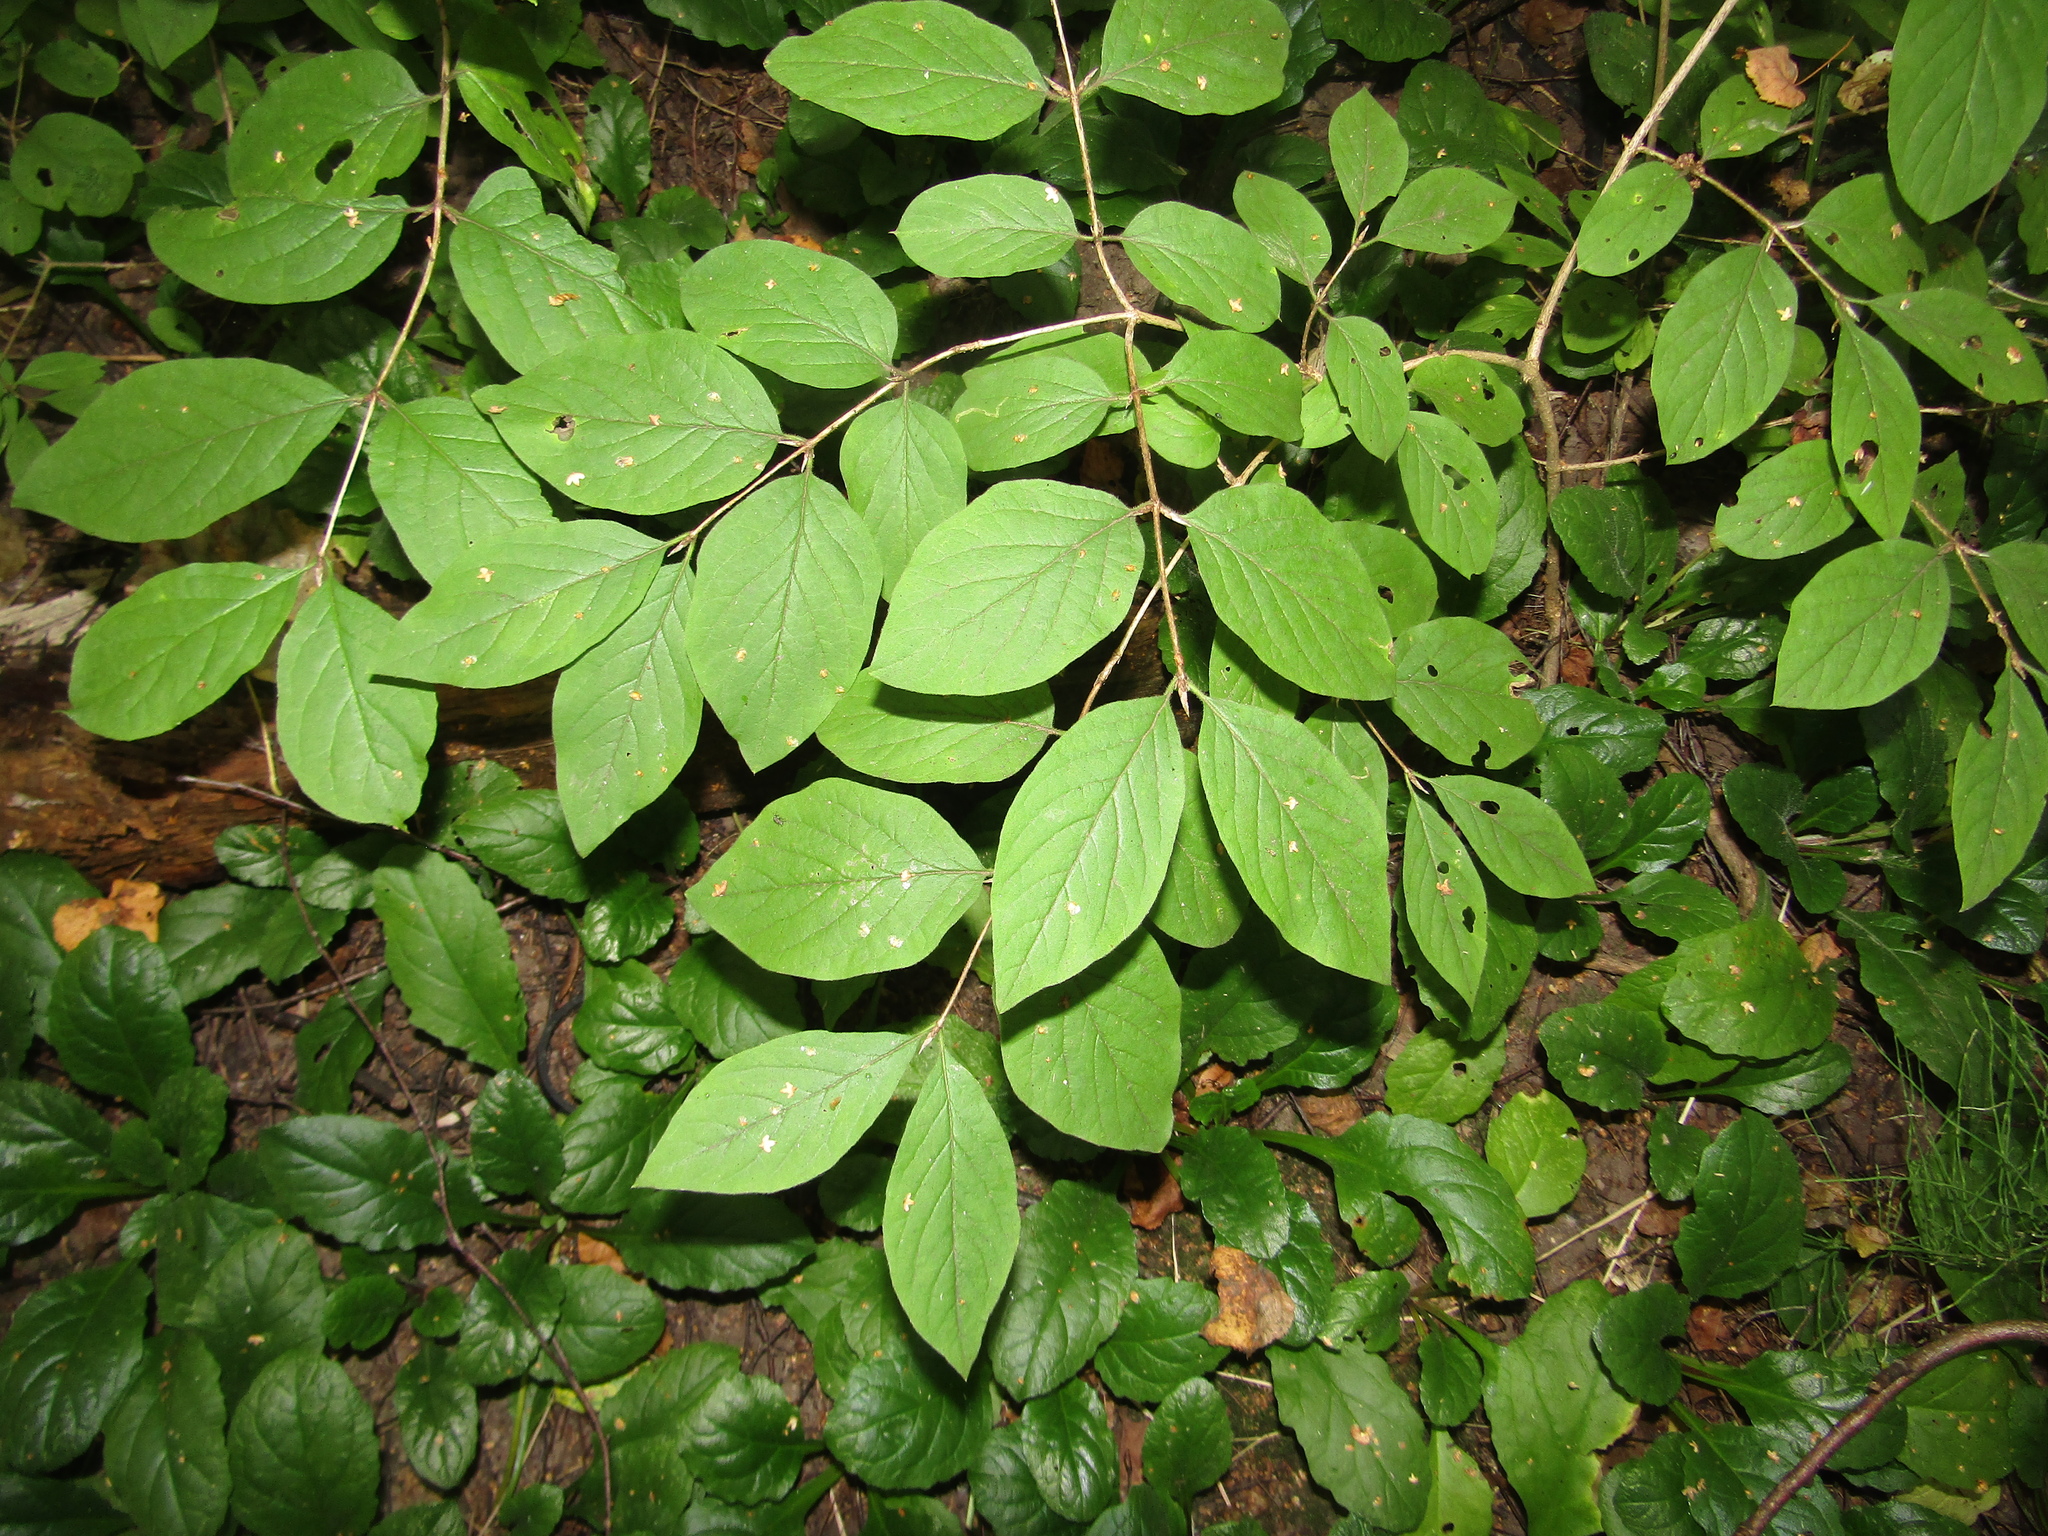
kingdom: Plantae
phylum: Tracheophyta
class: Magnoliopsida
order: Dipsacales
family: Caprifoliaceae
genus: Lonicera
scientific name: Lonicera xylosteum
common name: Fly honeysuckle
